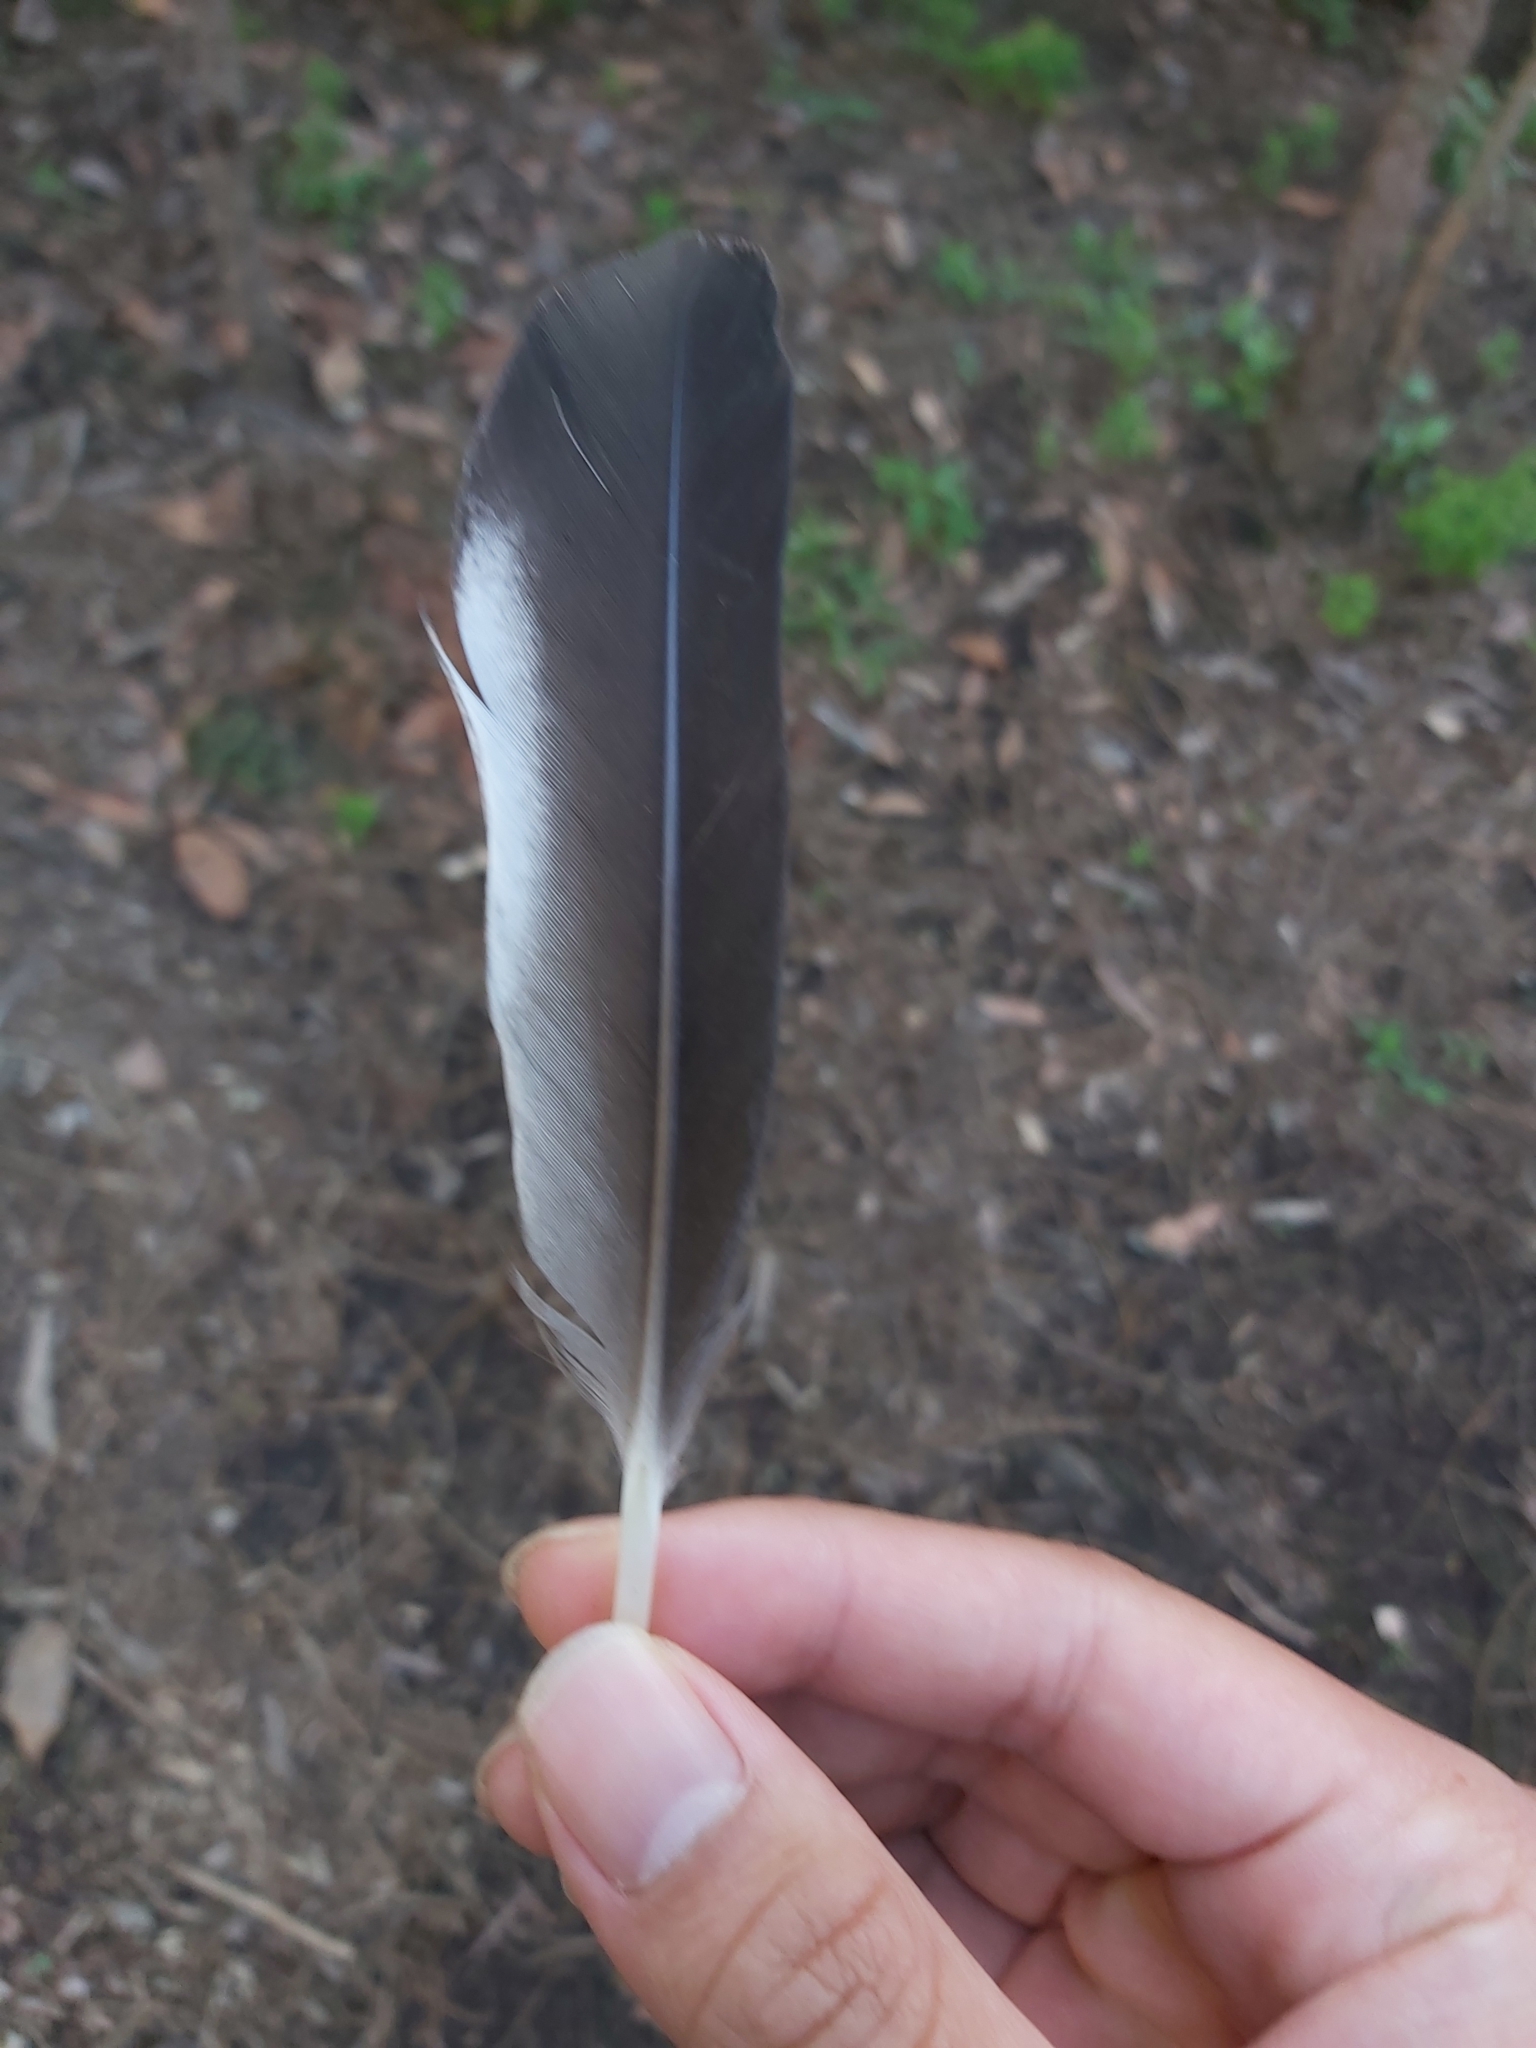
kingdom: Animalia
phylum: Chordata
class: Aves
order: Anseriformes
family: Anatidae
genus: Chenonetta
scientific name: Chenonetta jubata
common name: Maned duck
